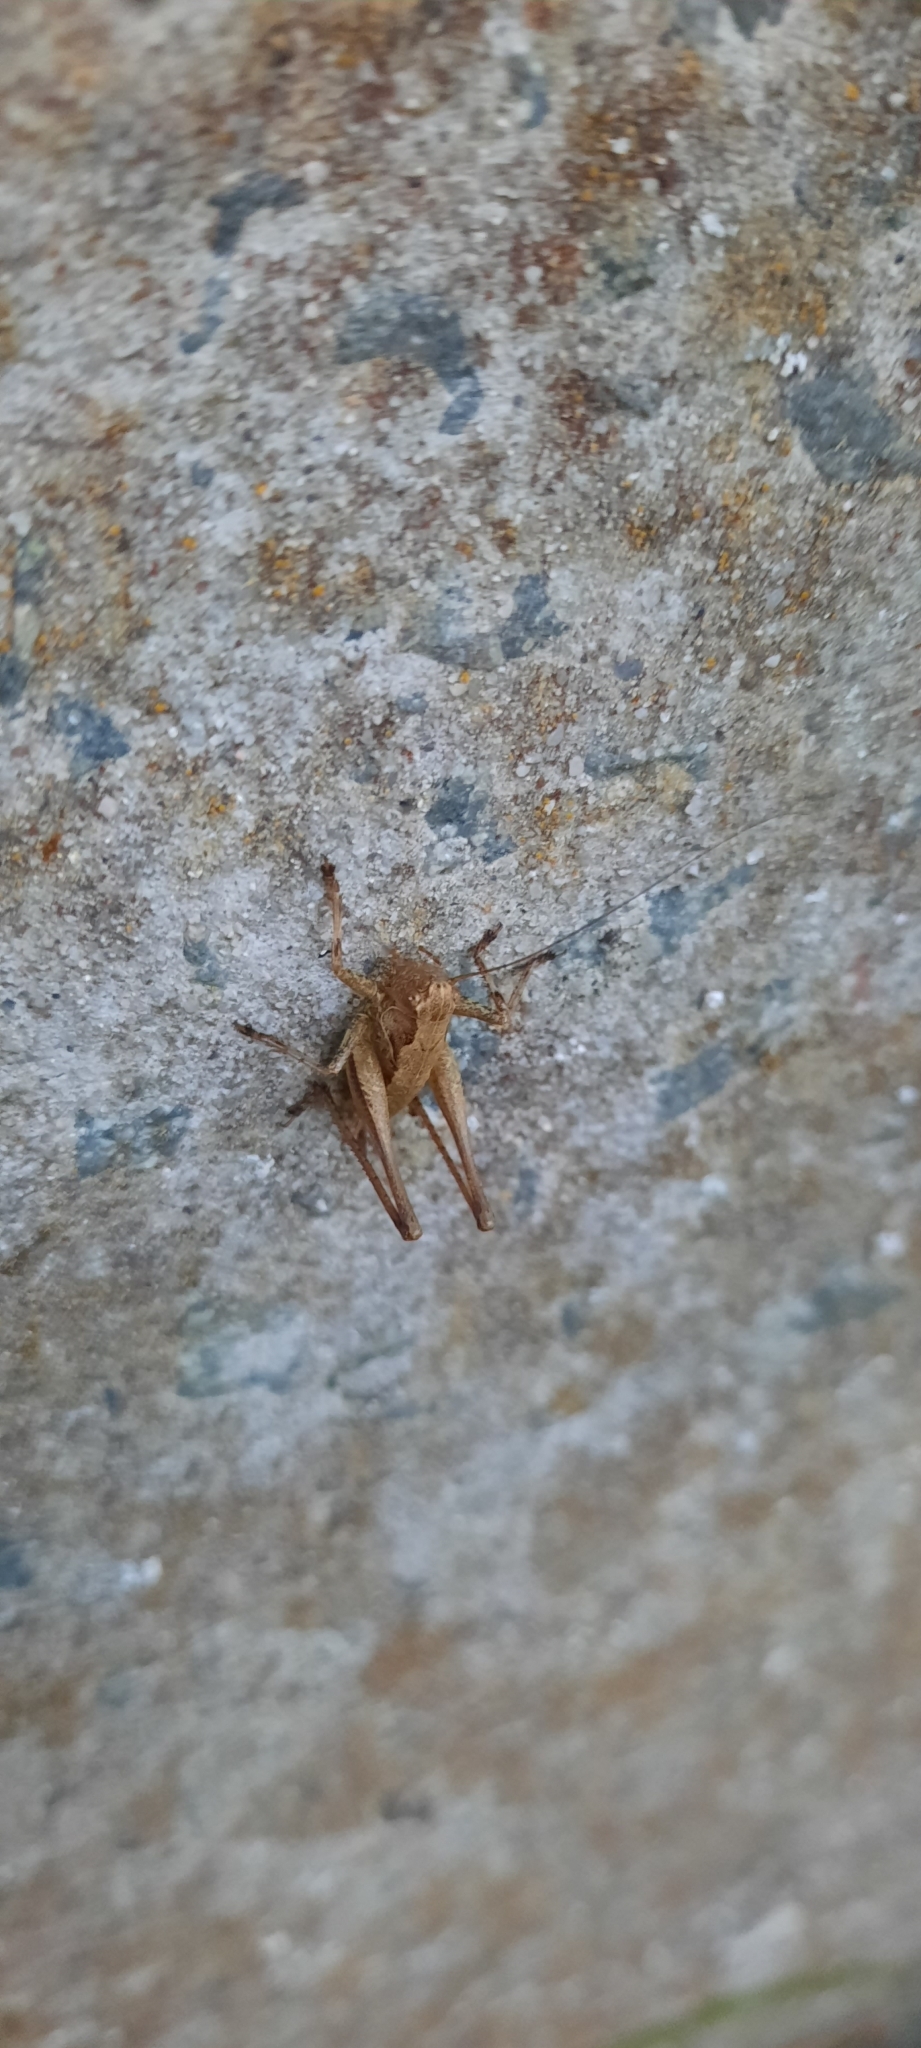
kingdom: Animalia
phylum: Arthropoda
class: Insecta
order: Orthoptera
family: Tettigoniidae
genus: Pholidoptera
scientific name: Pholidoptera griseoaptera
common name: Dark bush-cricket
